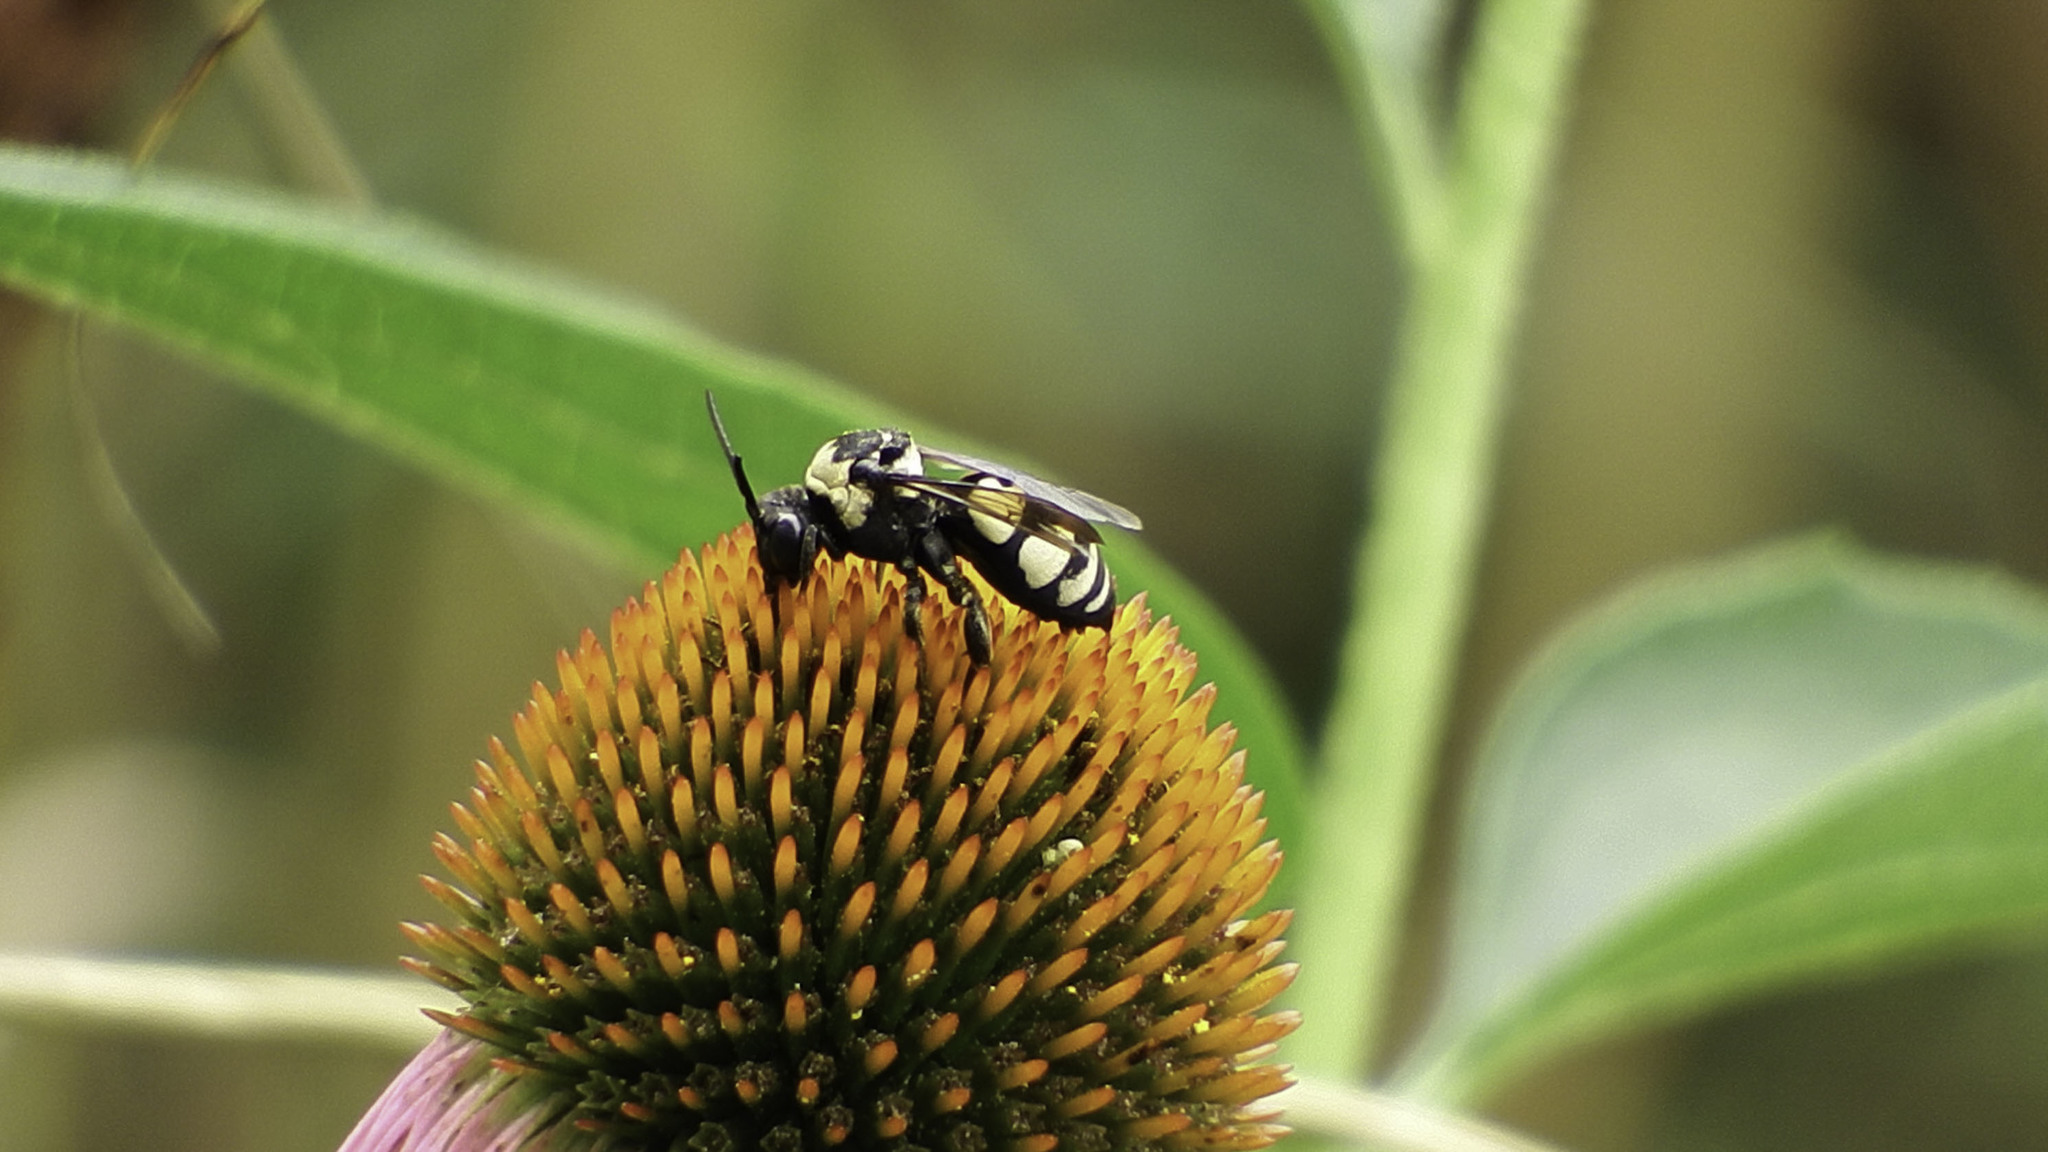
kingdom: Animalia
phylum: Arthropoda
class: Insecta
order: Hymenoptera
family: Apidae
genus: Triepeolus
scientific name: Triepeolus concavus
